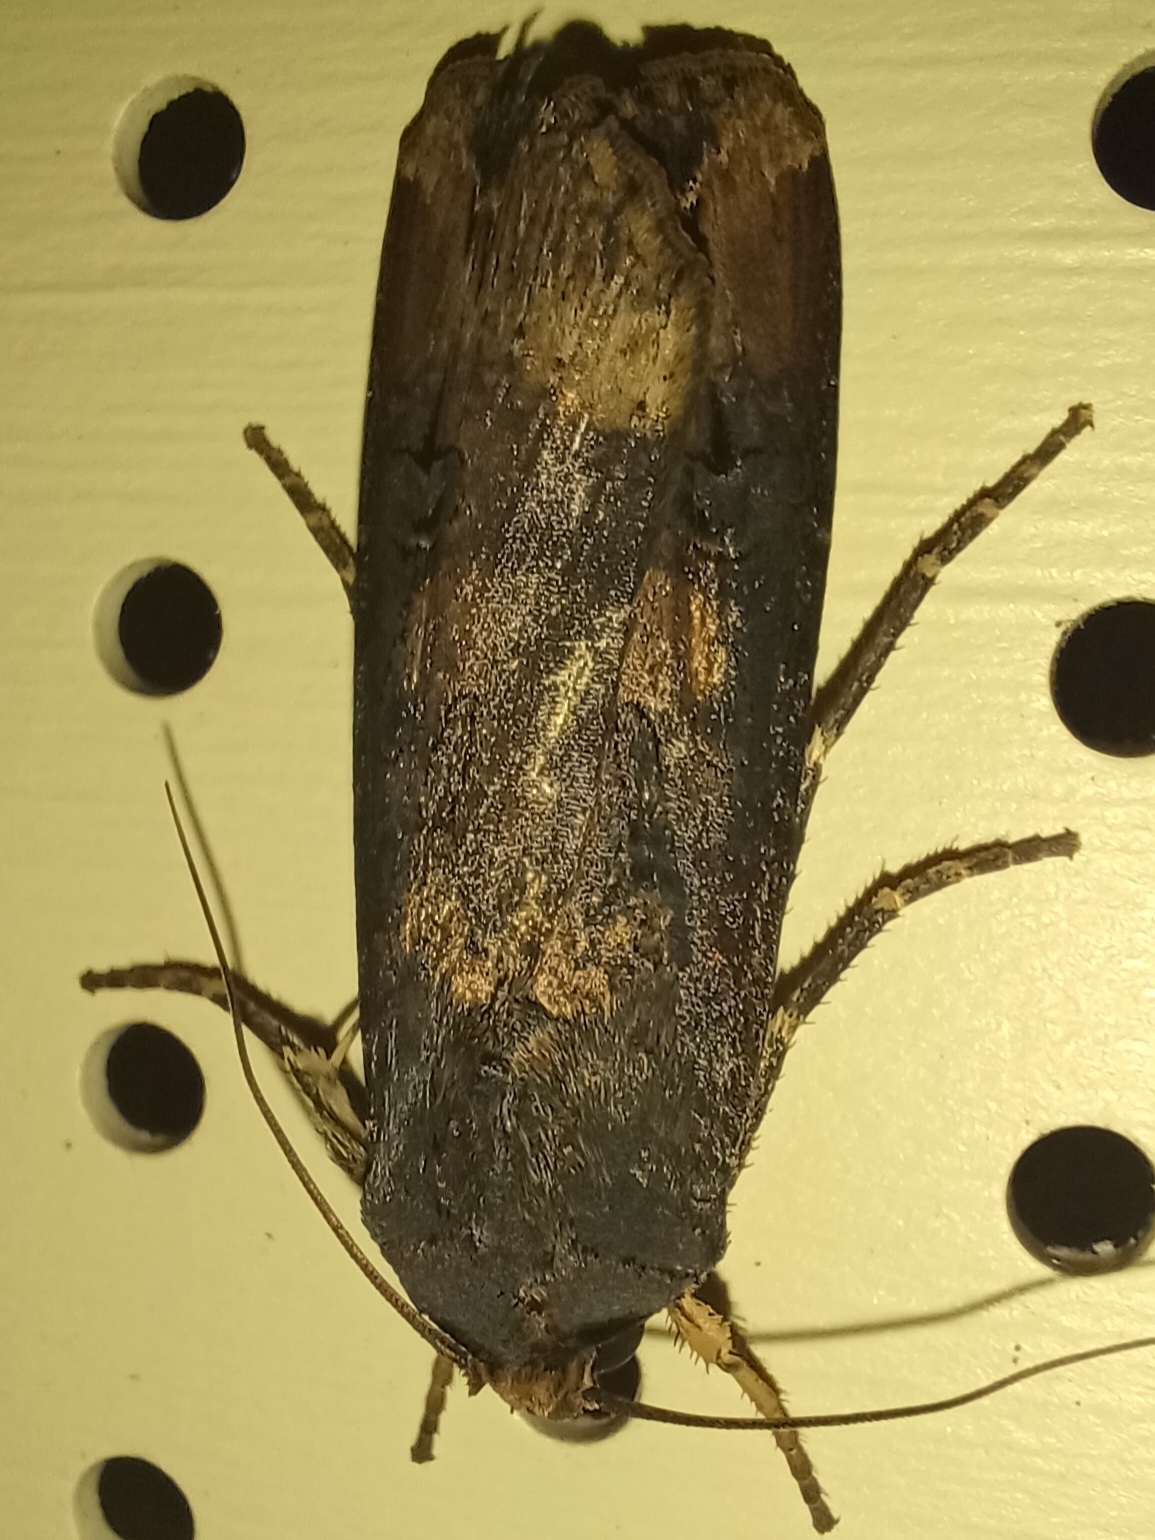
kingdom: Animalia
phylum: Arthropoda
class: Insecta
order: Lepidoptera
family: Noctuidae
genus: Agrotis
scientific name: Agrotis ipsilon
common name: Dark sword-grass
